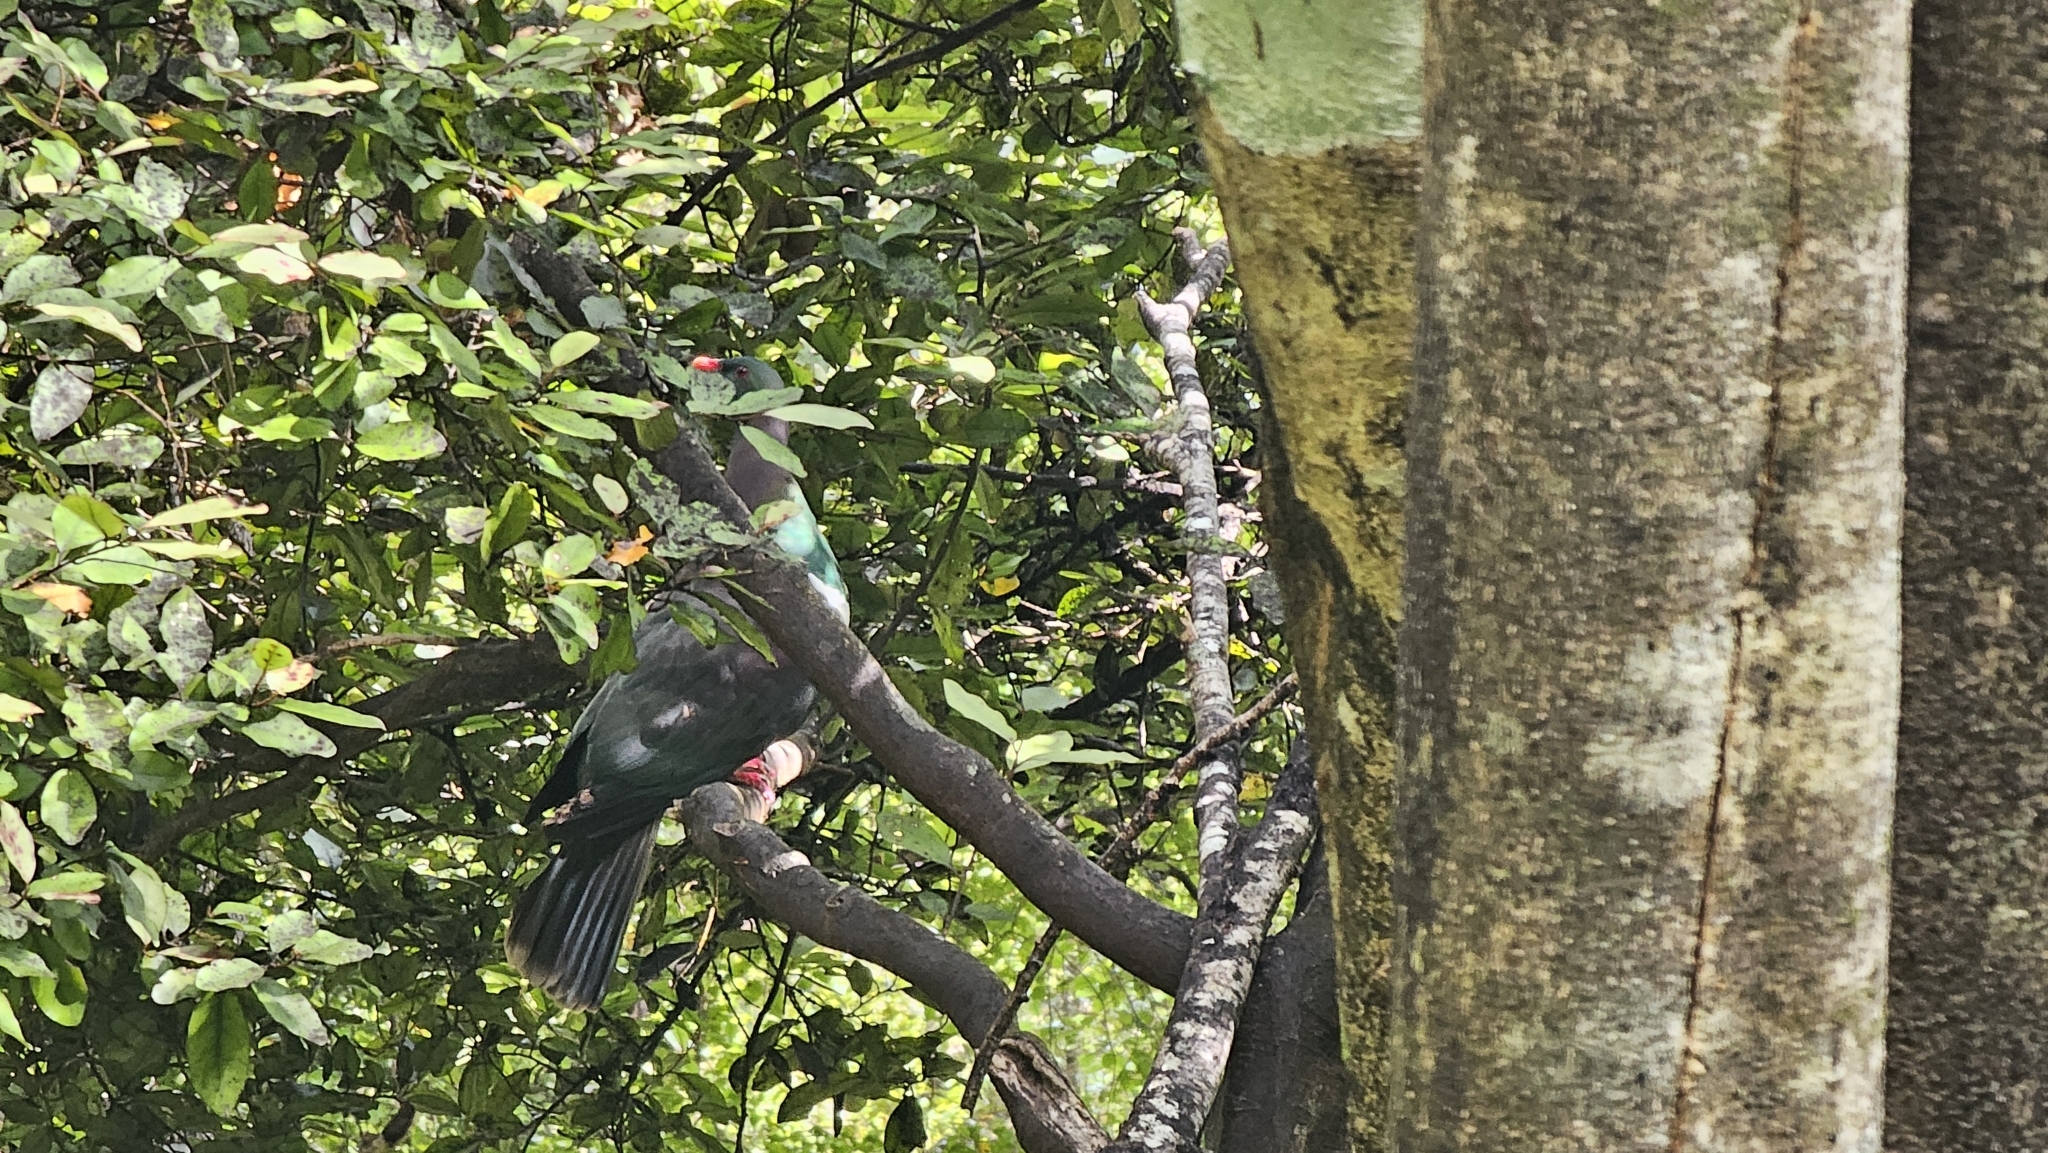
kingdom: Animalia
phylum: Chordata
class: Aves
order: Columbiformes
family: Columbidae
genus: Hemiphaga
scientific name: Hemiphaga novaeseelandiae
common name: New zealand pigeon
